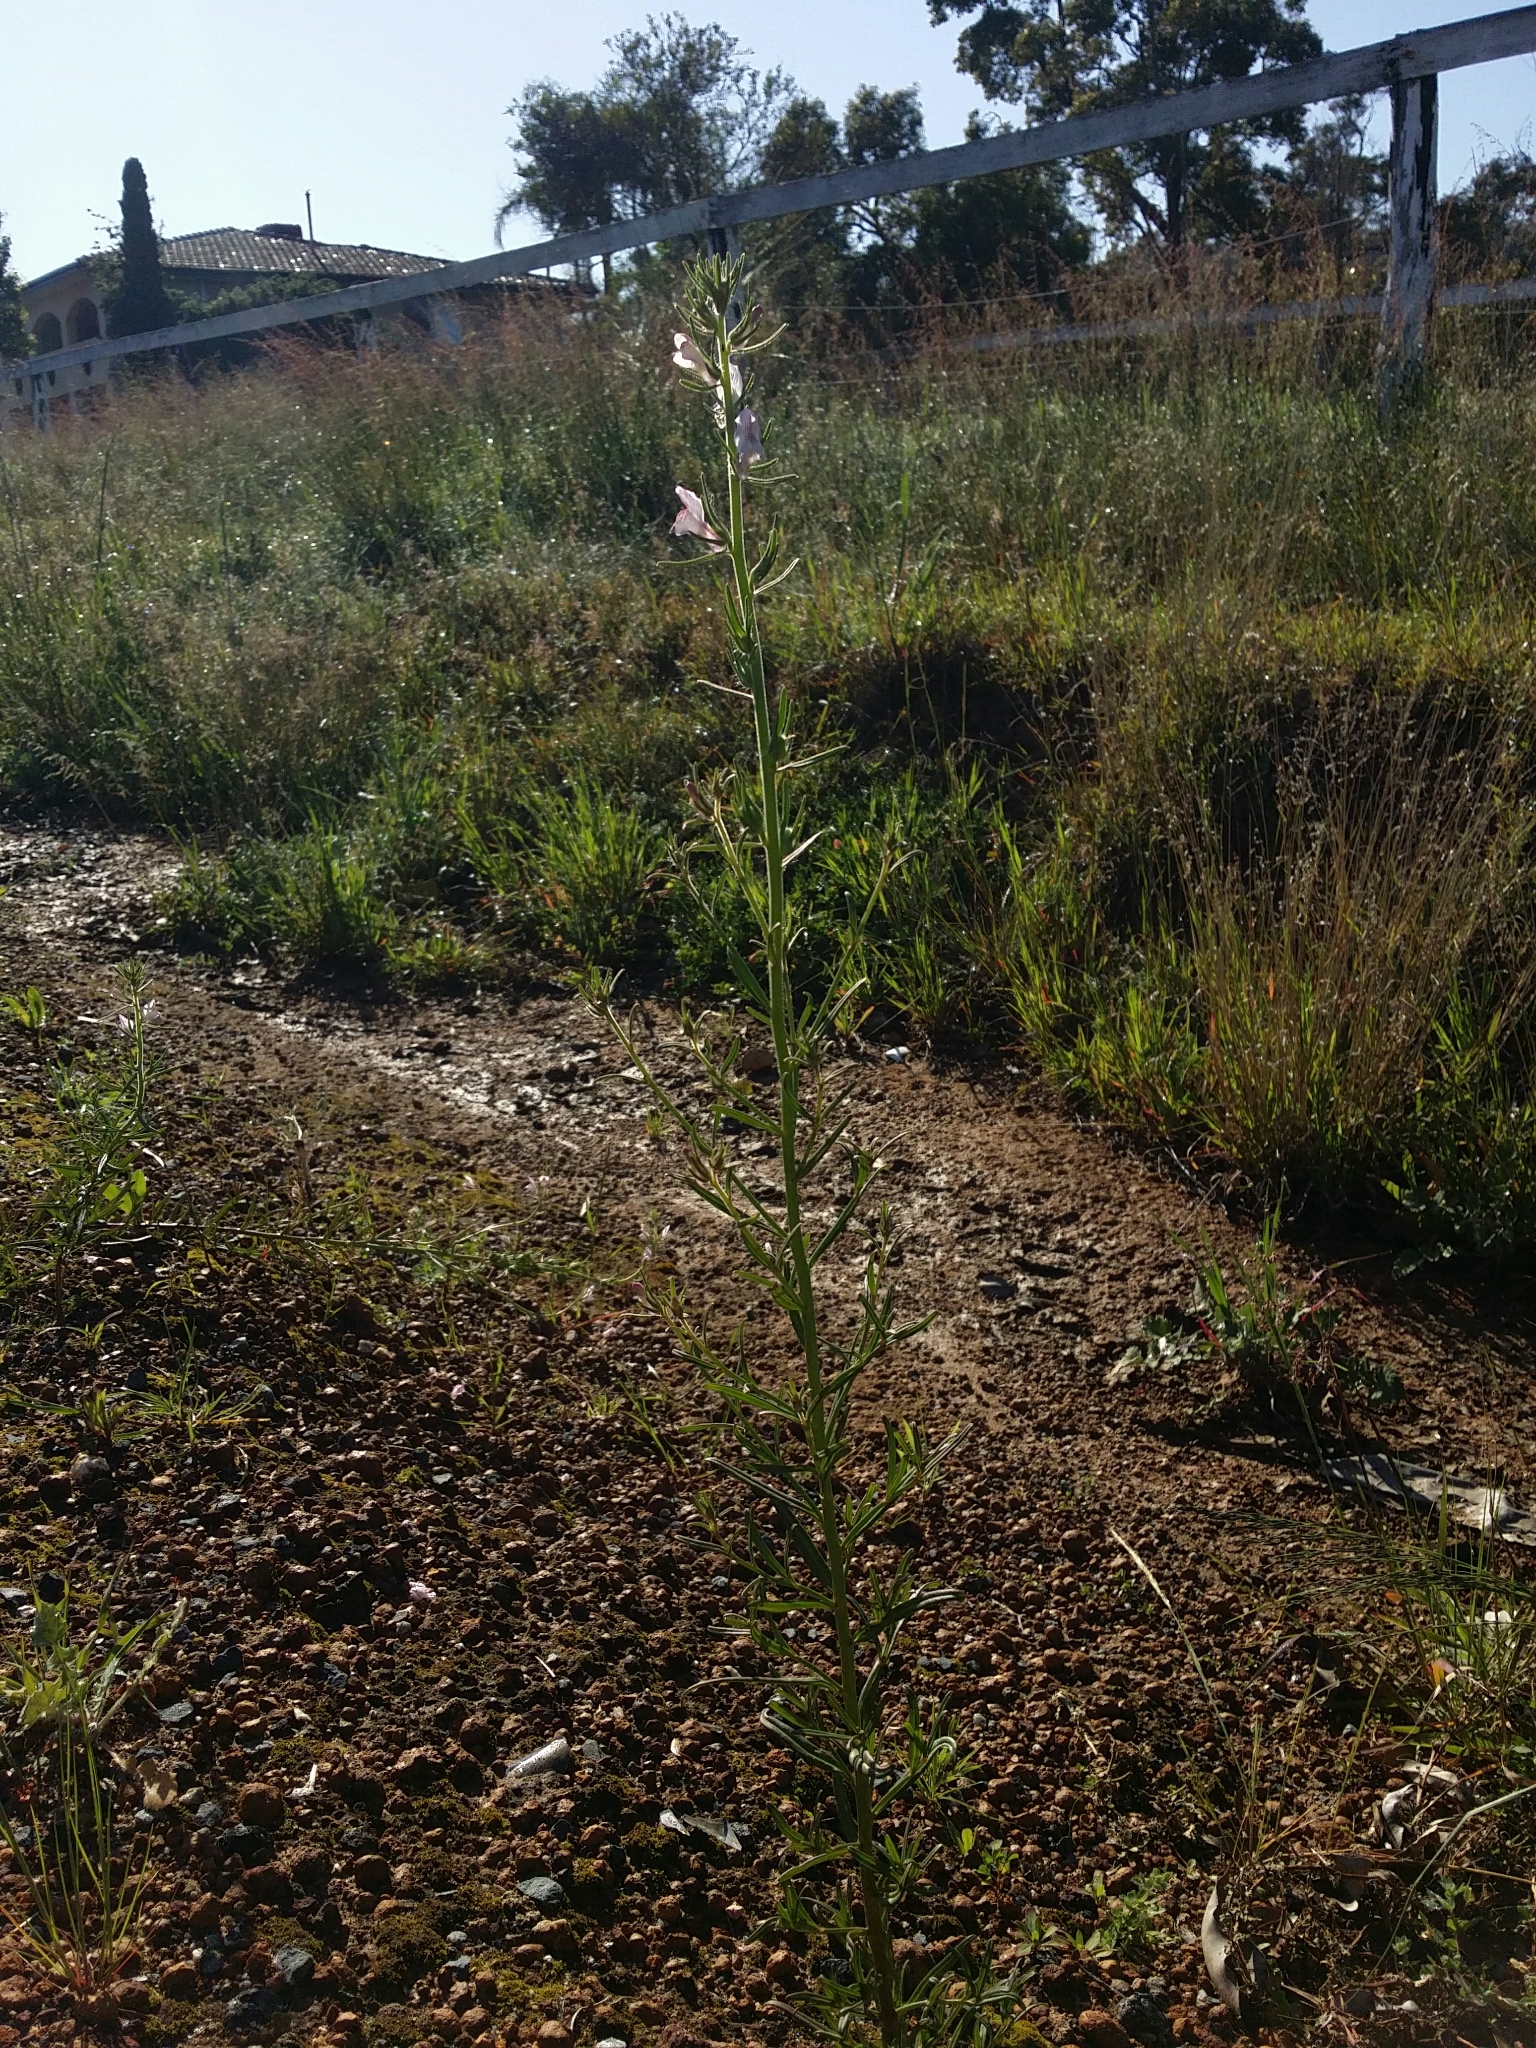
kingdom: Plantae
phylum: Tracheophyta
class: Magnoliopsida
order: Lamiales
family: Plantaginaceae
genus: Misopates
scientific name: Misopates orontium
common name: Weasel's-snout
